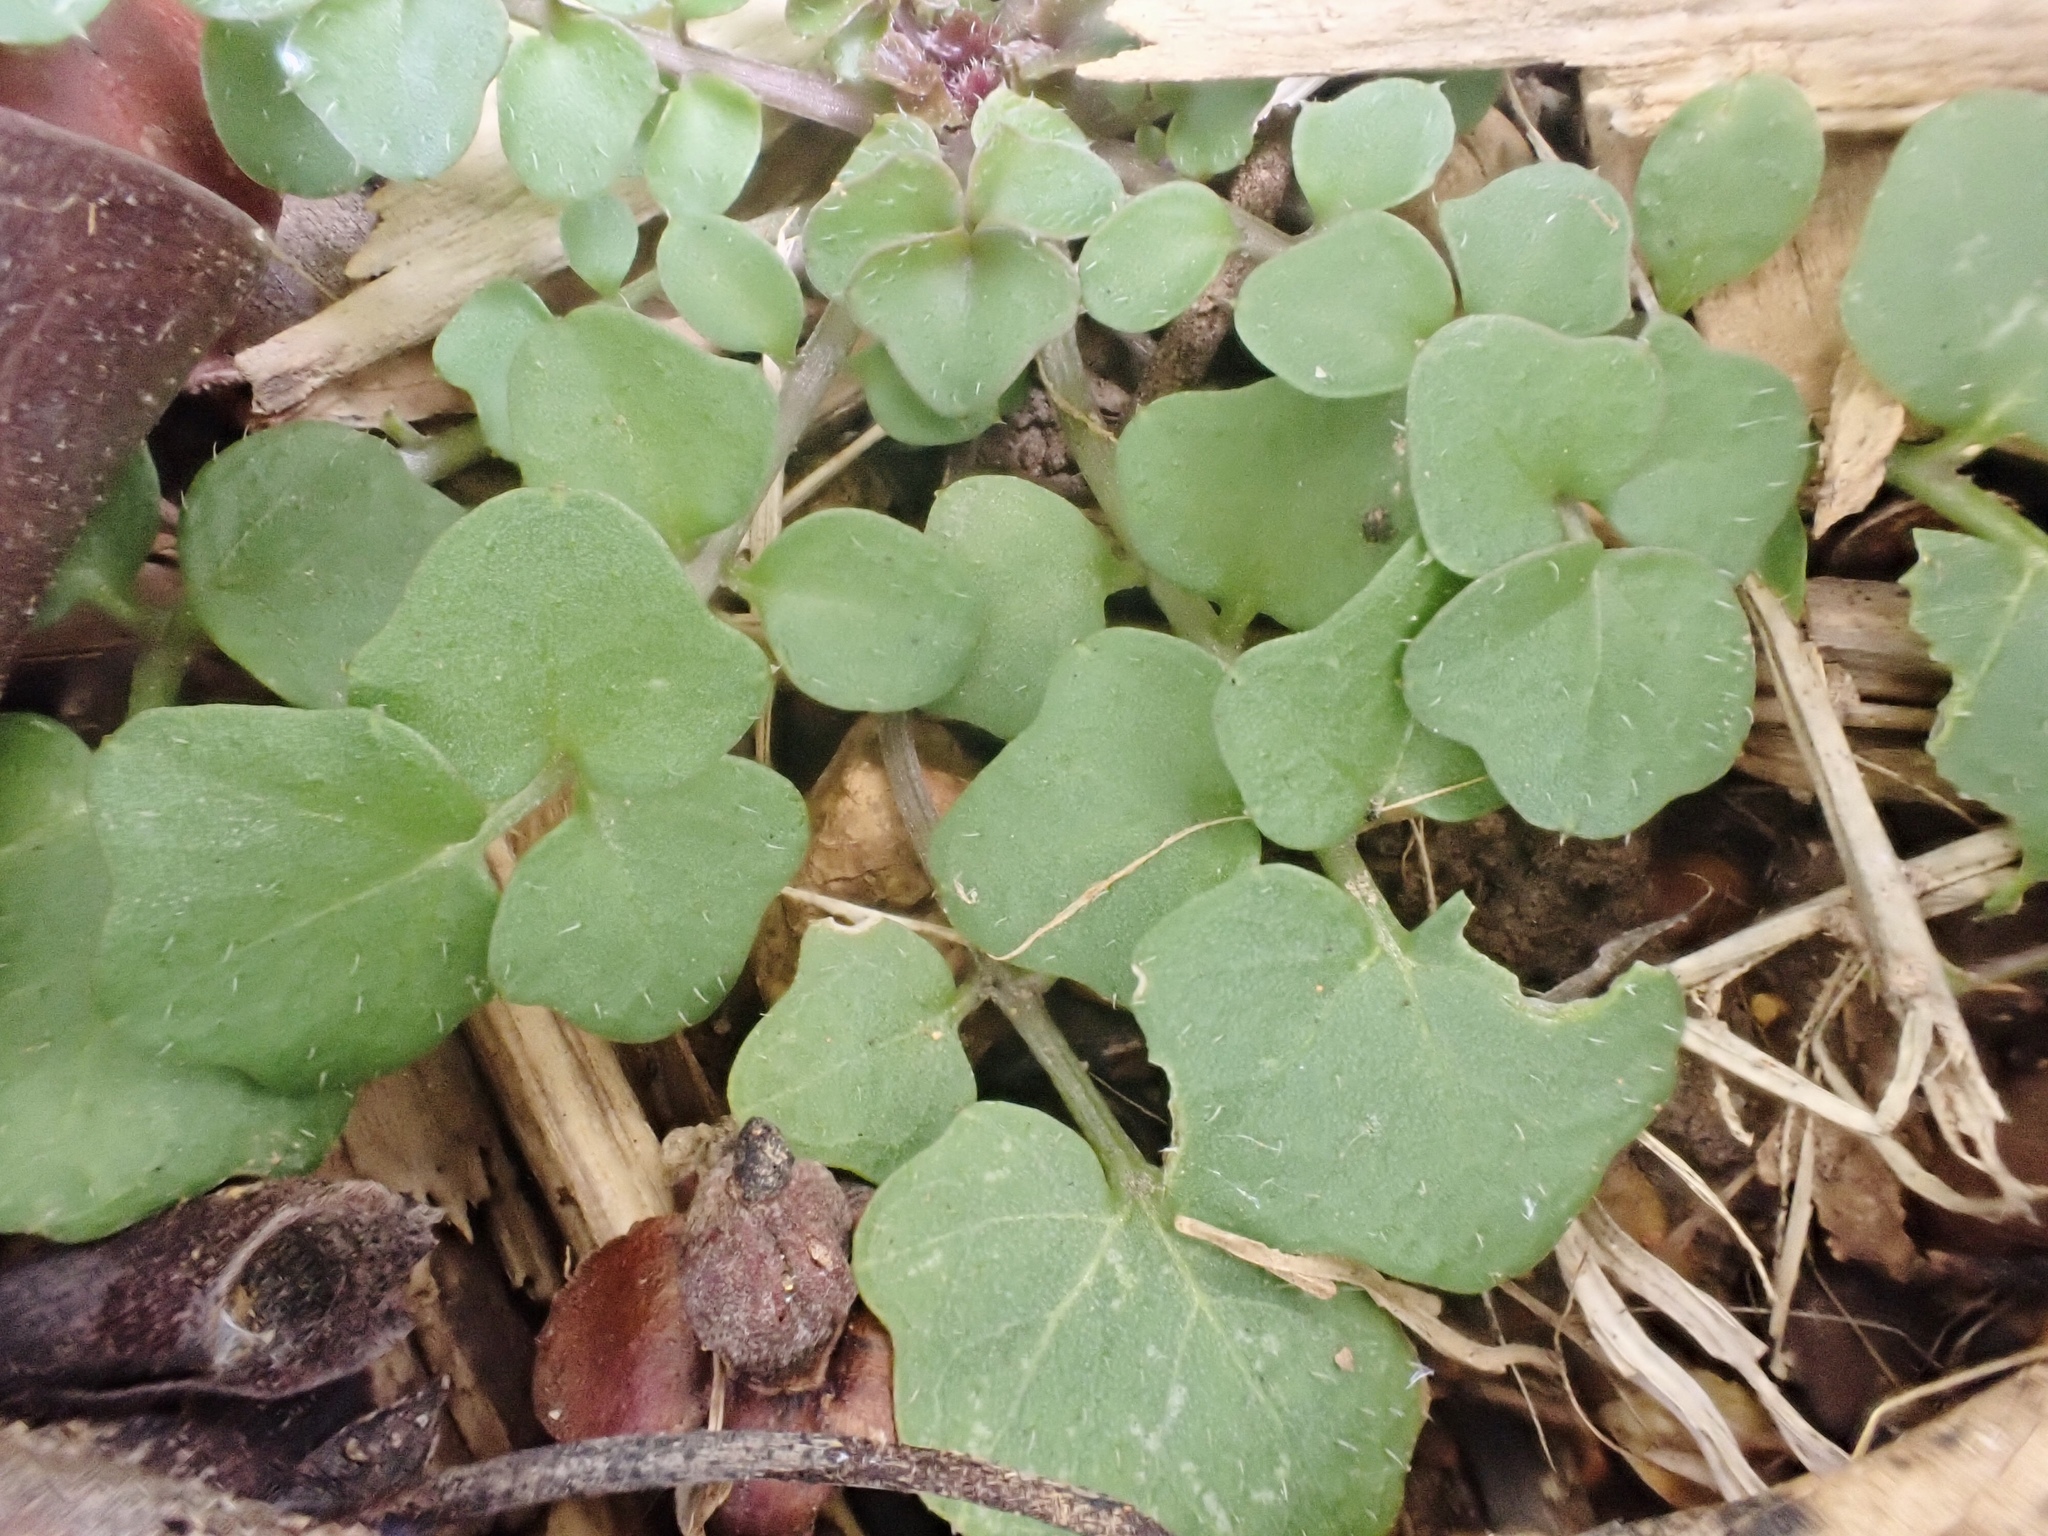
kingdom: Plantae
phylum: Tracheophyta
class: Magnoliopsida
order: Brassicales
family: Brassicaceae
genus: Cardamine
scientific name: Cardamine hirsuta
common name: Hairy bittercress
